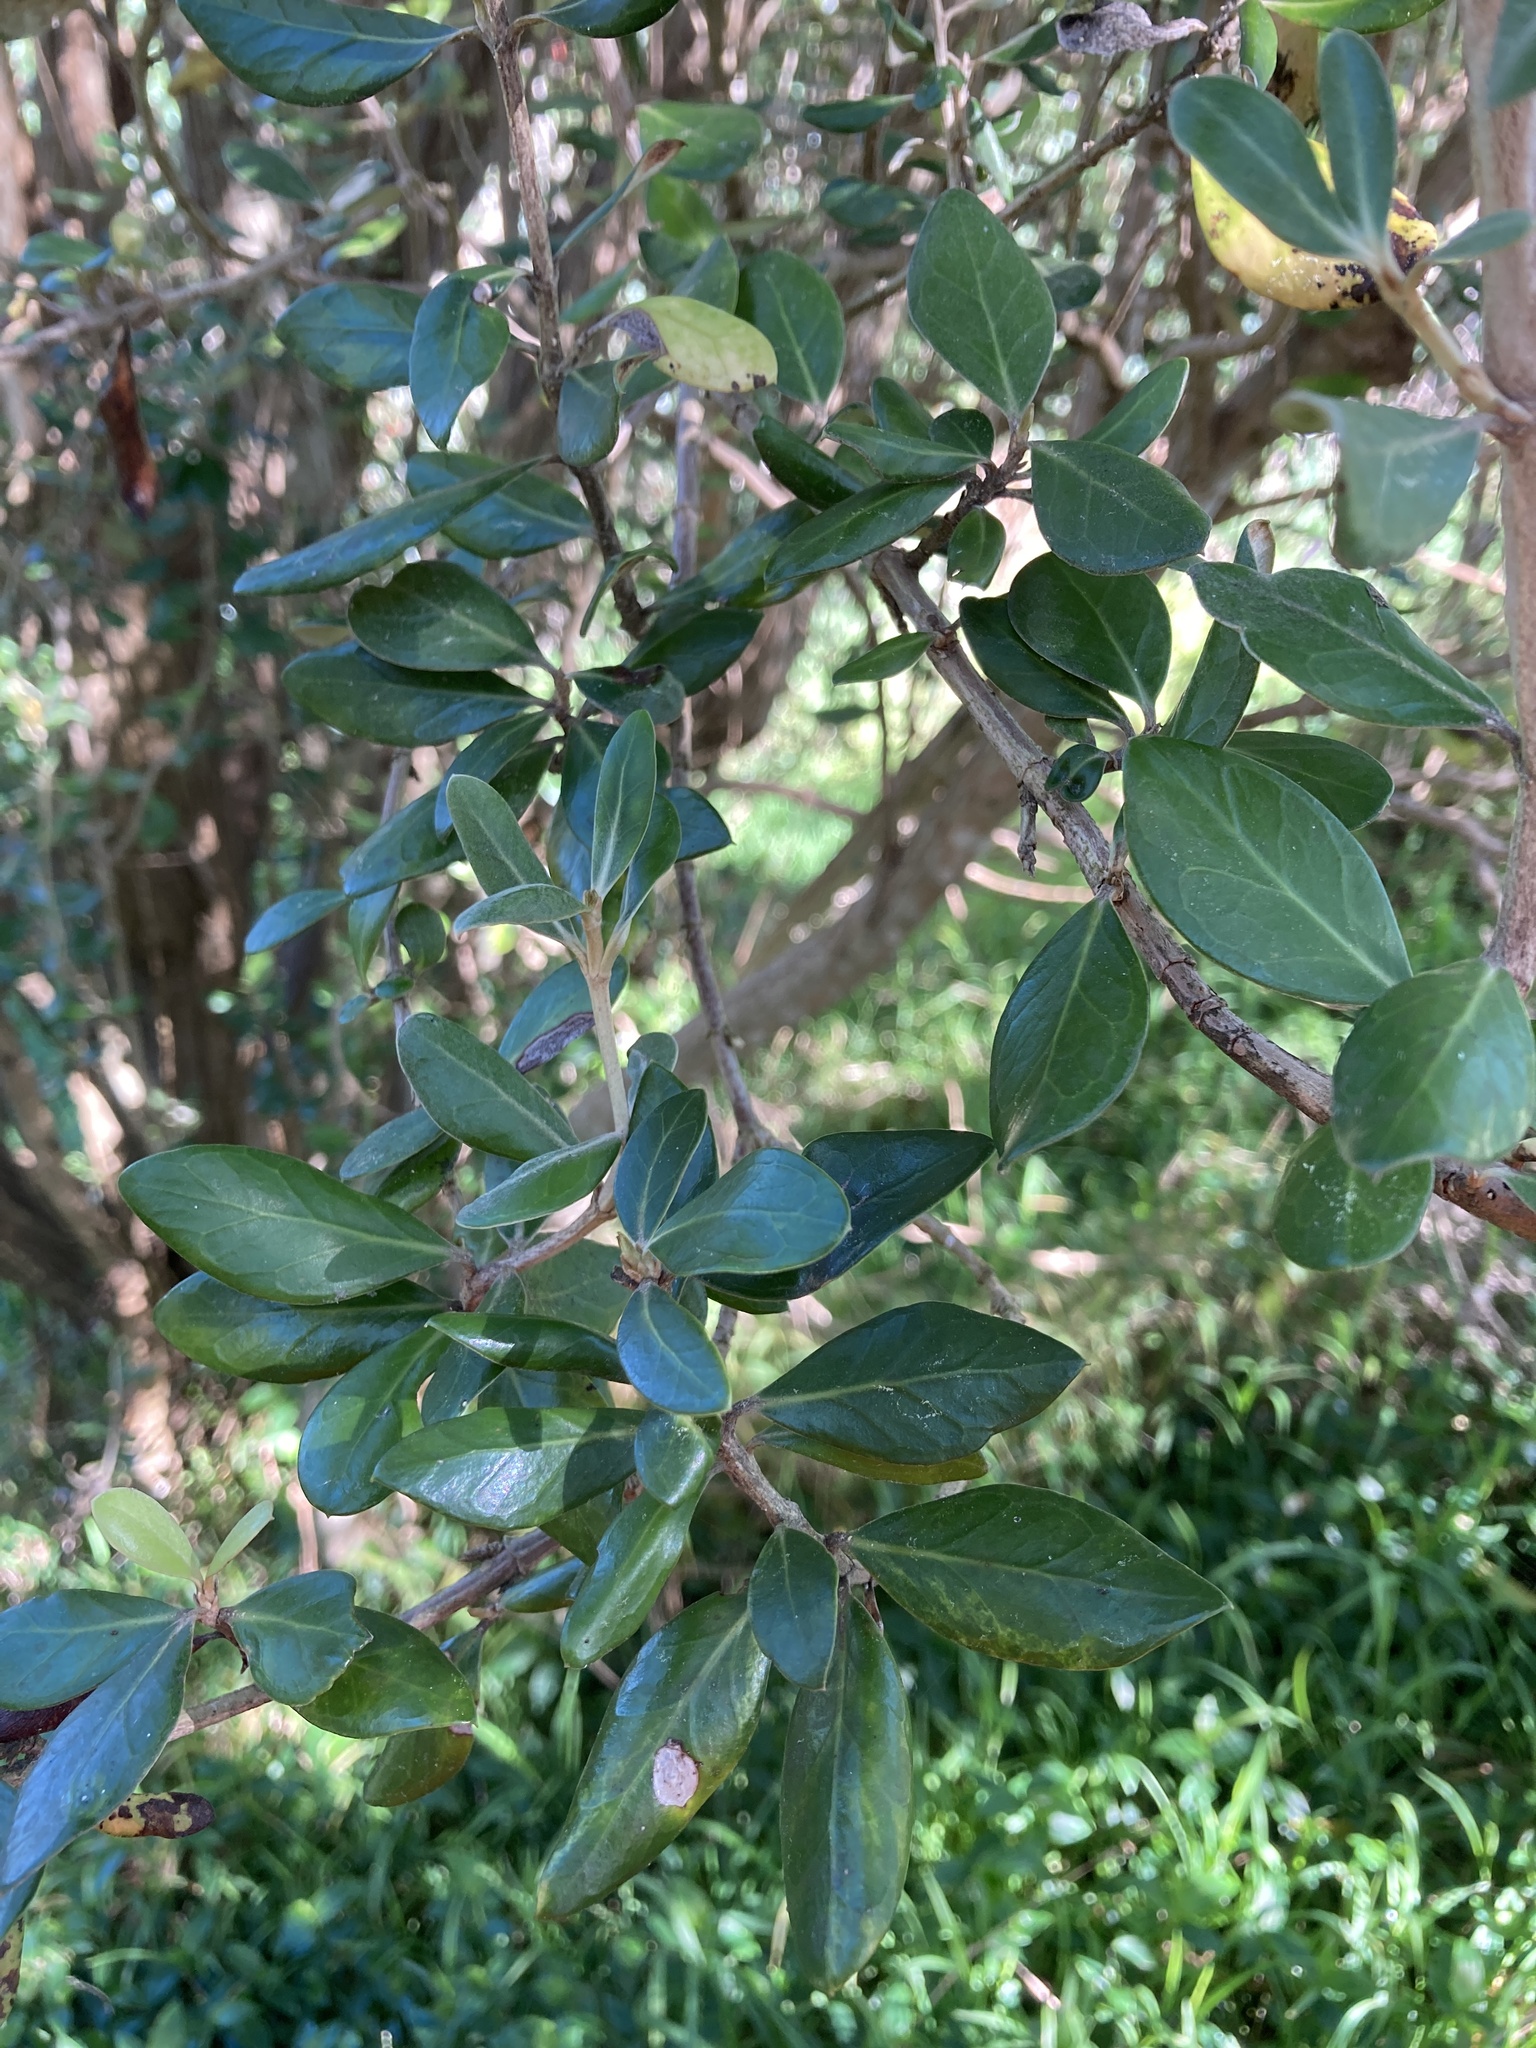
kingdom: Plantae
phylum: Tracheophyta
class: Magnoliopsida
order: Asterales
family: Asteraceae
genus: Olearia
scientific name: Olearia traversiorum
